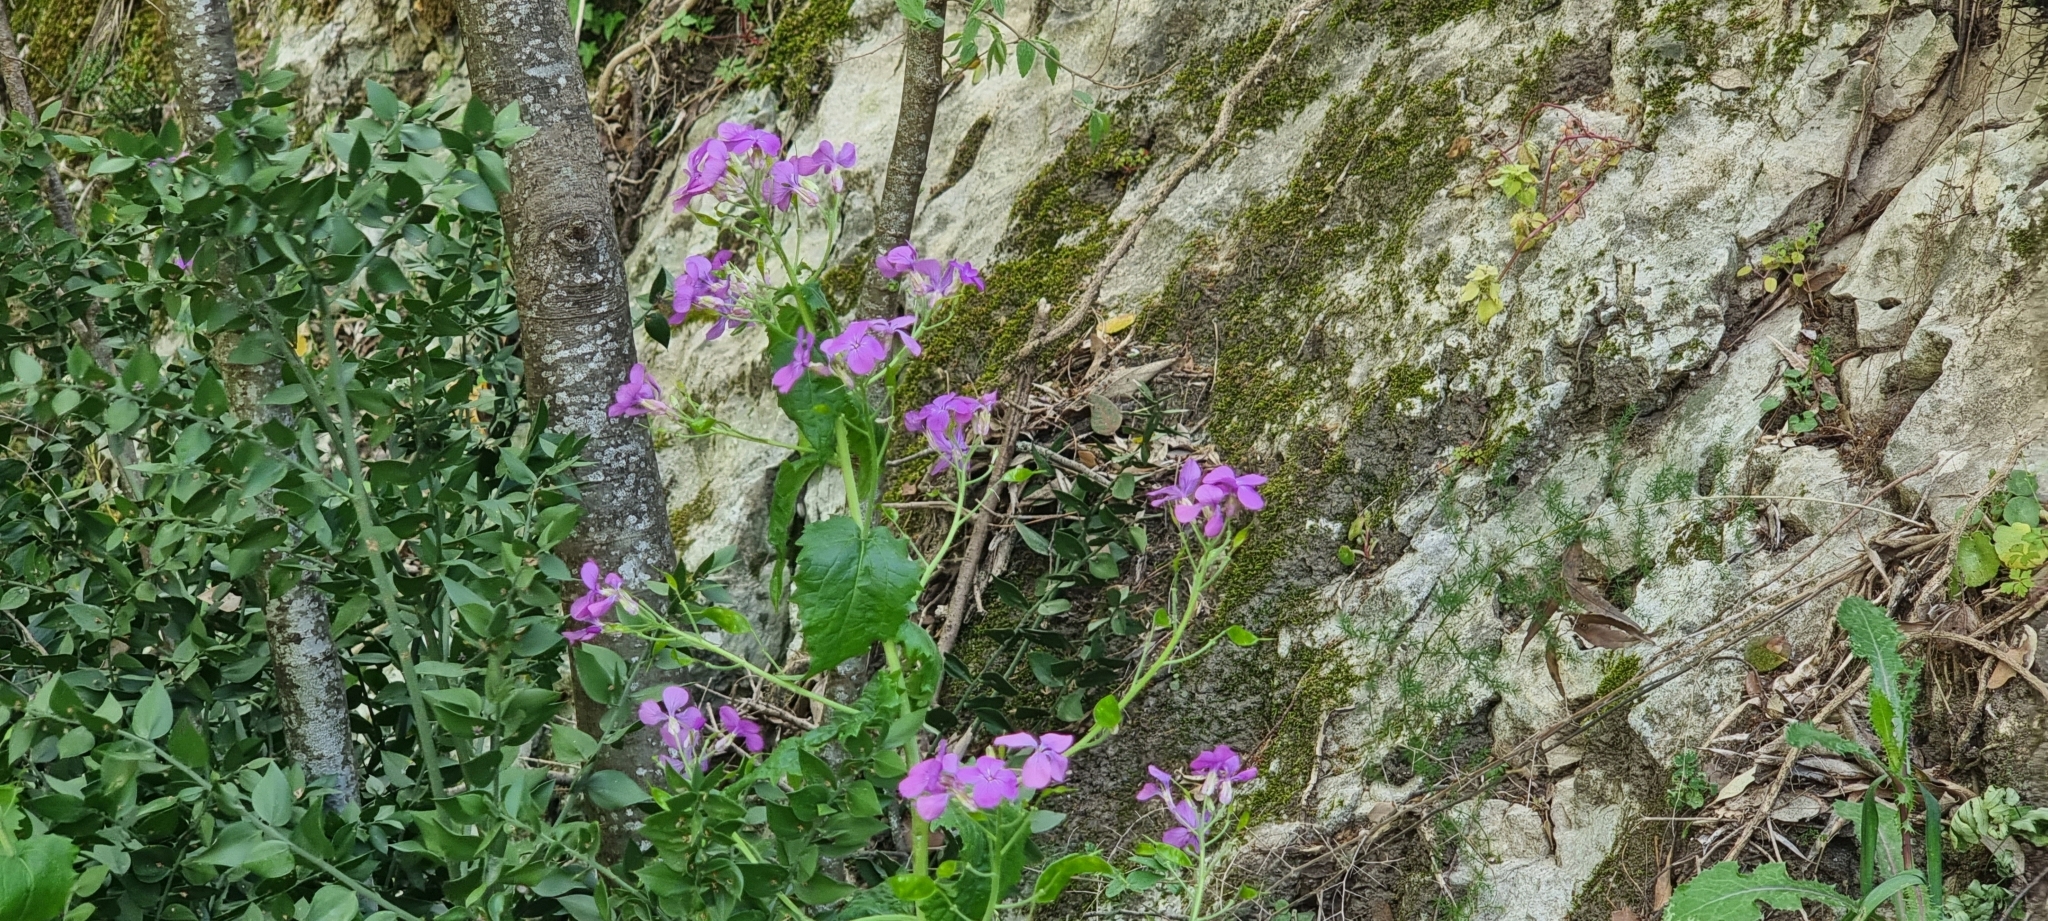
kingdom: Plantae
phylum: Tracheophyta
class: Magnoliopsida
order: Brassicales
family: Brassicaceae
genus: Lunaria
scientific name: Lunaria annua
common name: Honesty
